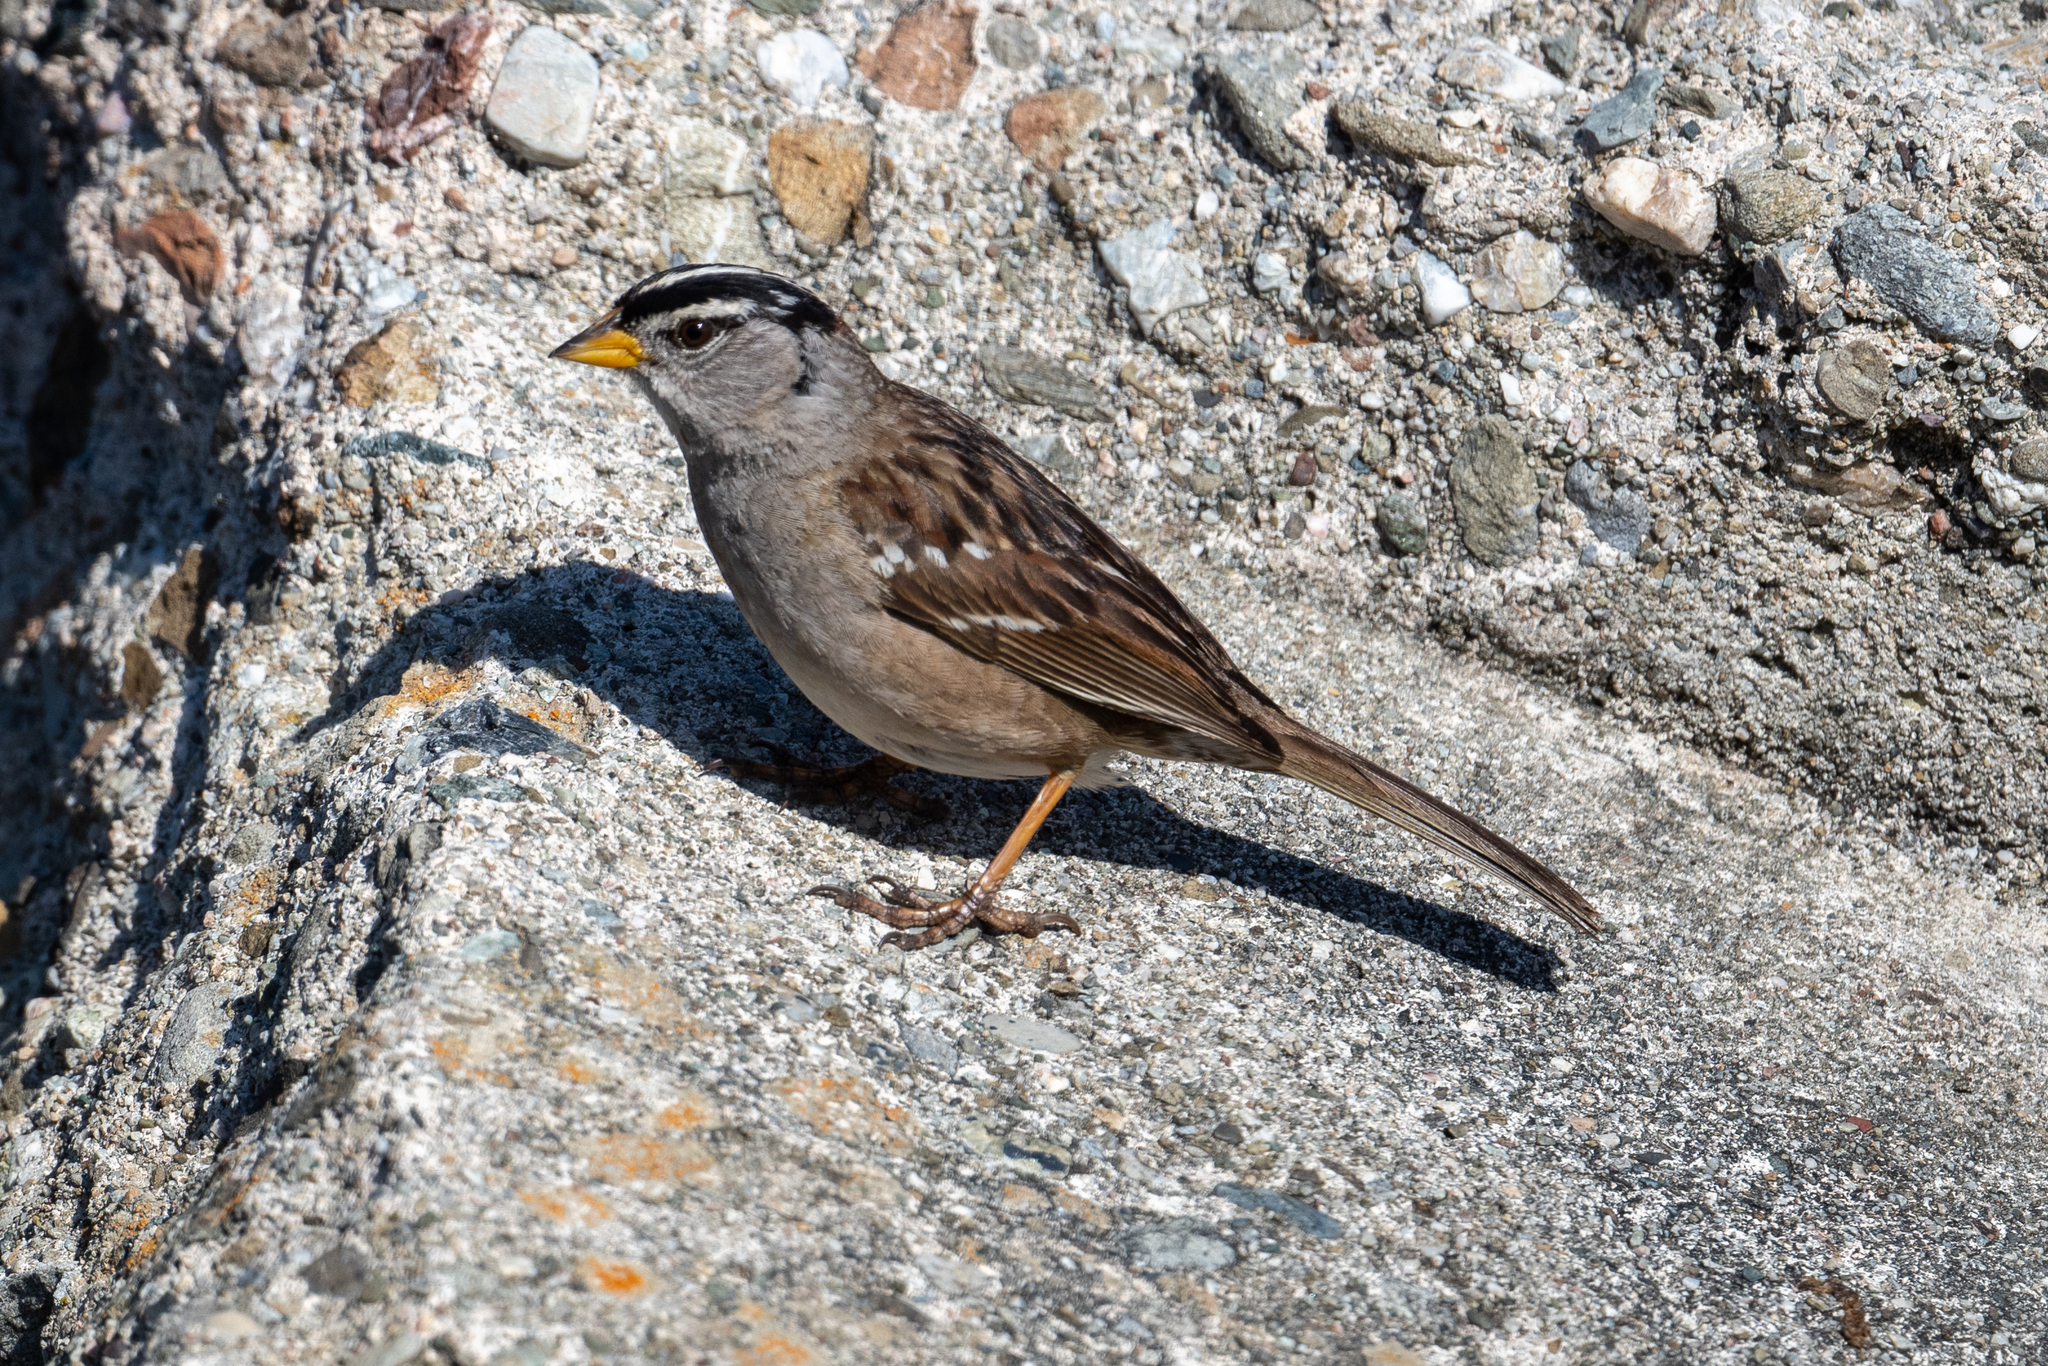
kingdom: Animalia
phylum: Chordata
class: Aves
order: Passeriformes
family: Passerellidae
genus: Zonotrichia
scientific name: Zonotrichia leucophrys
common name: White-crowned sparrow
